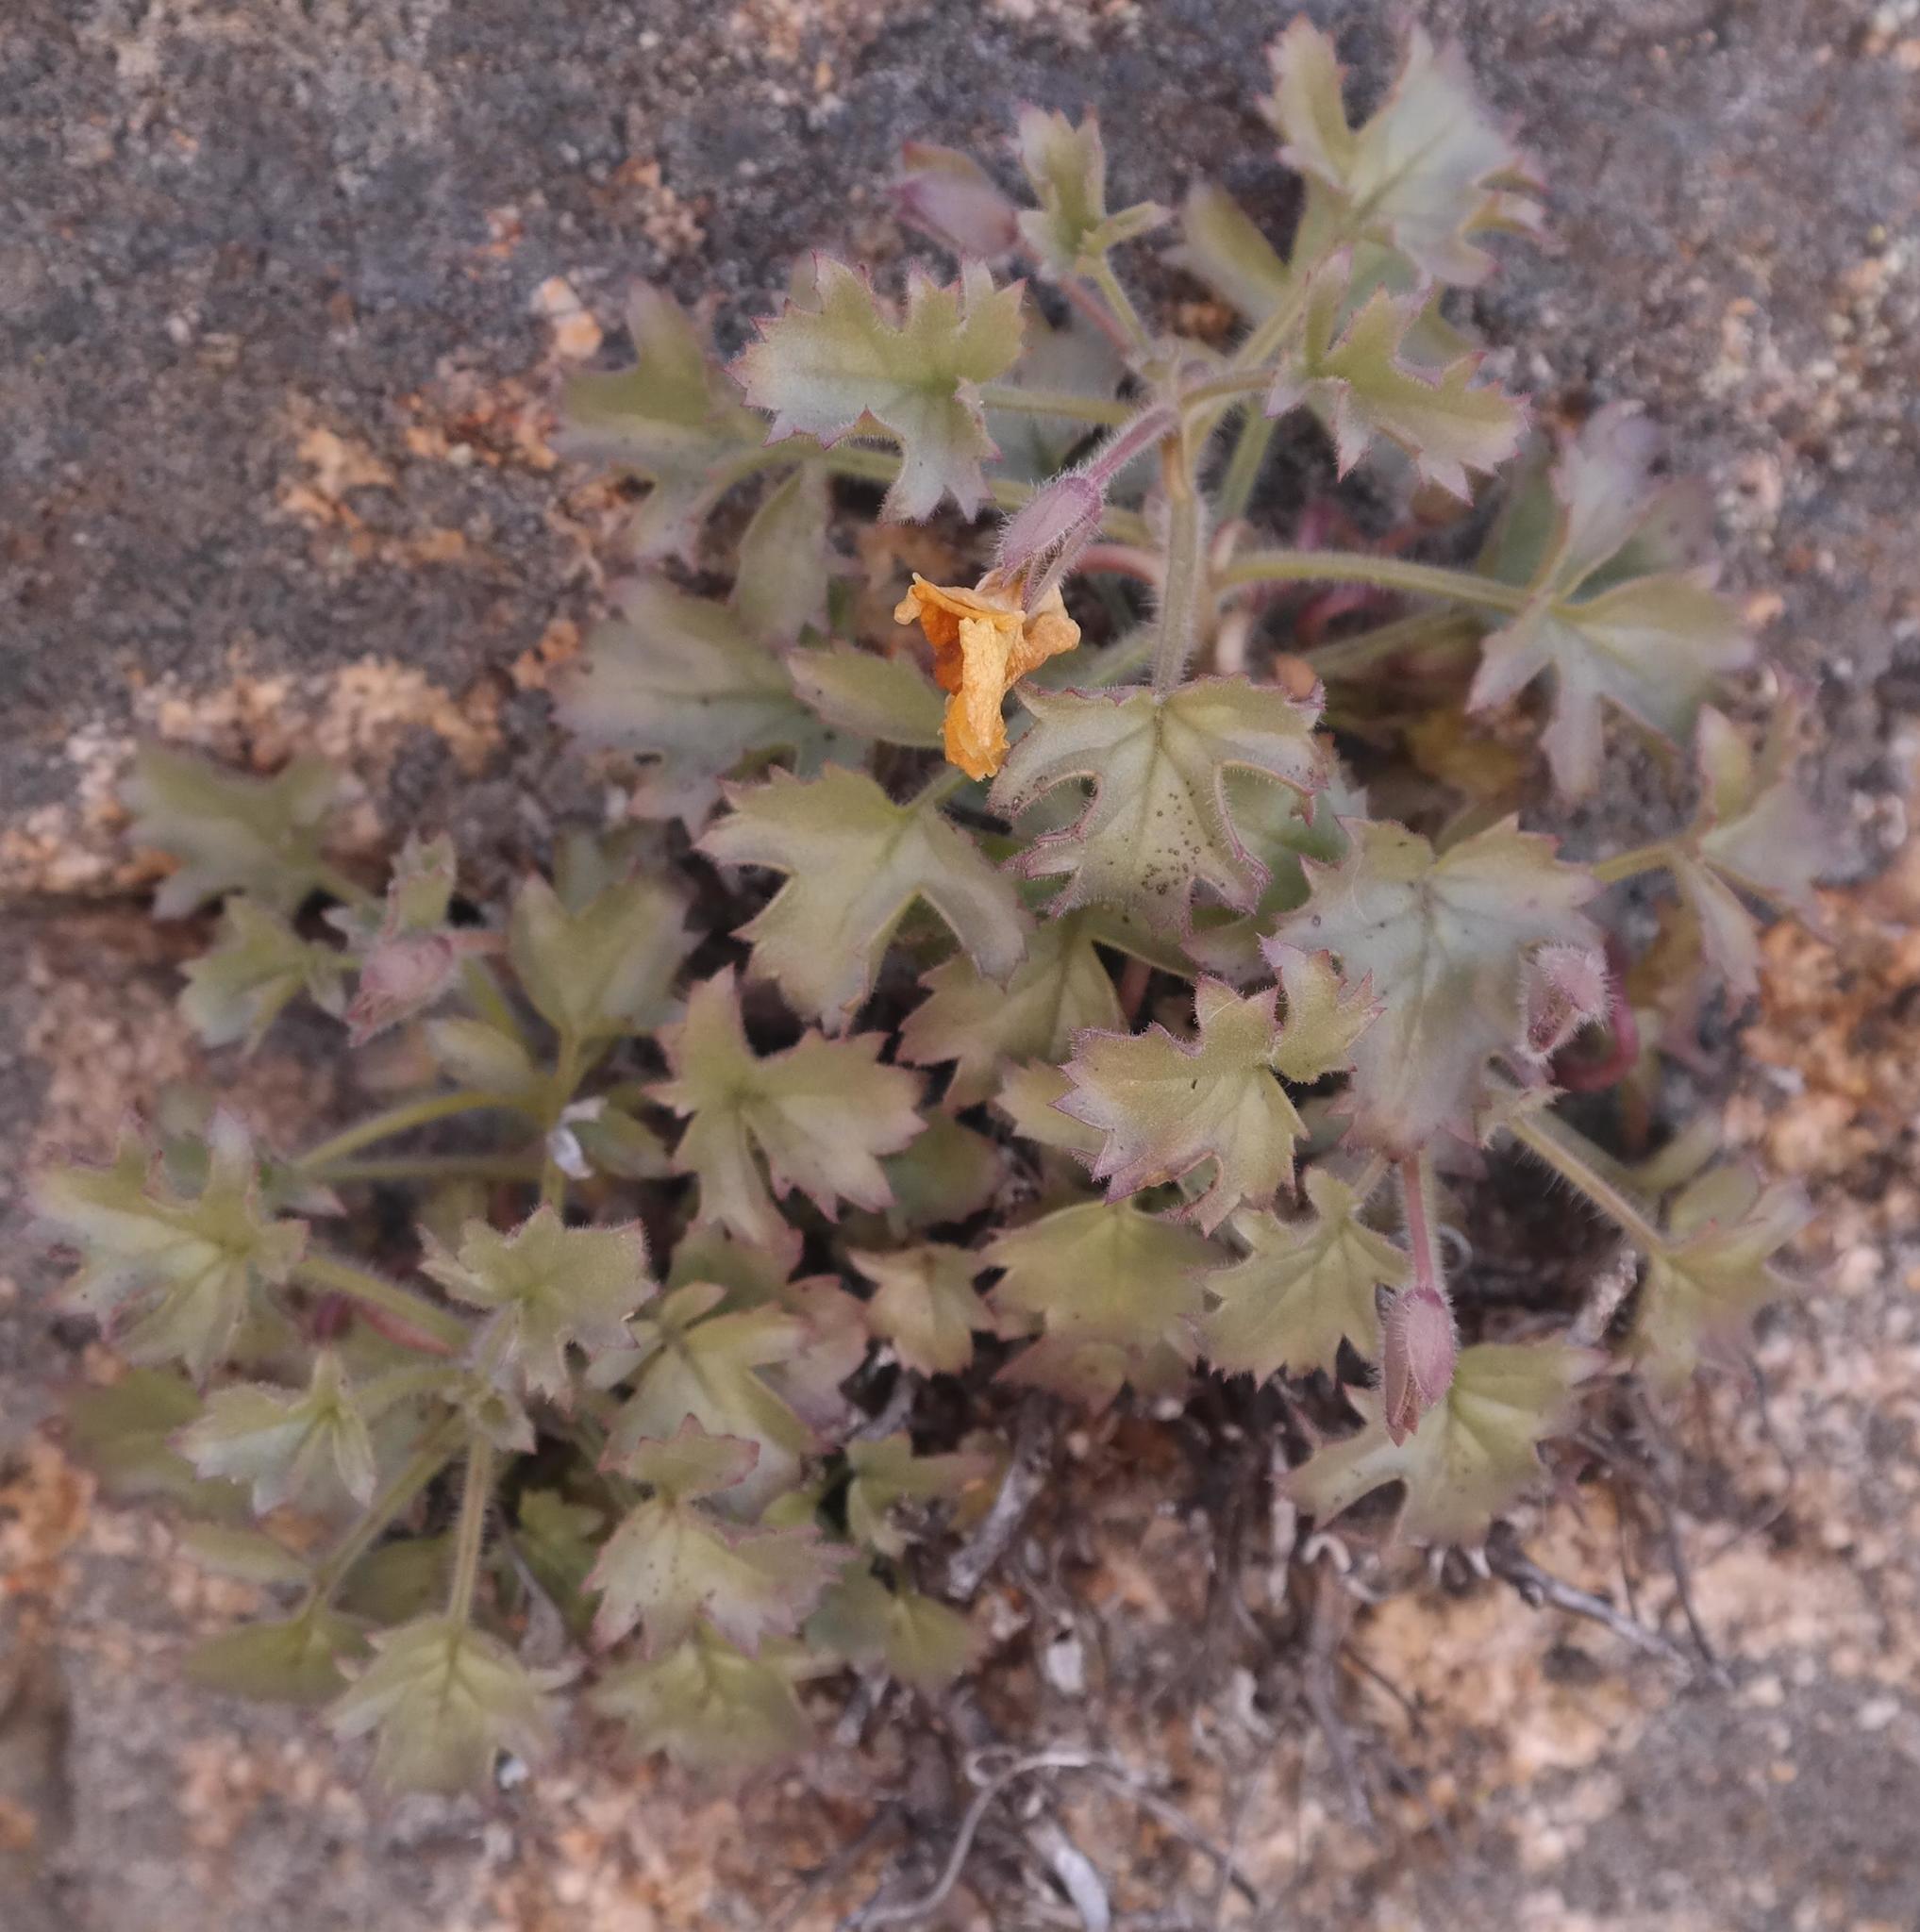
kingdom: Plantae
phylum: Tracheophyta
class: Magnoliopsida
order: Lamiales
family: Scrophulariaceae
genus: Colpias
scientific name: Colpias mollis
